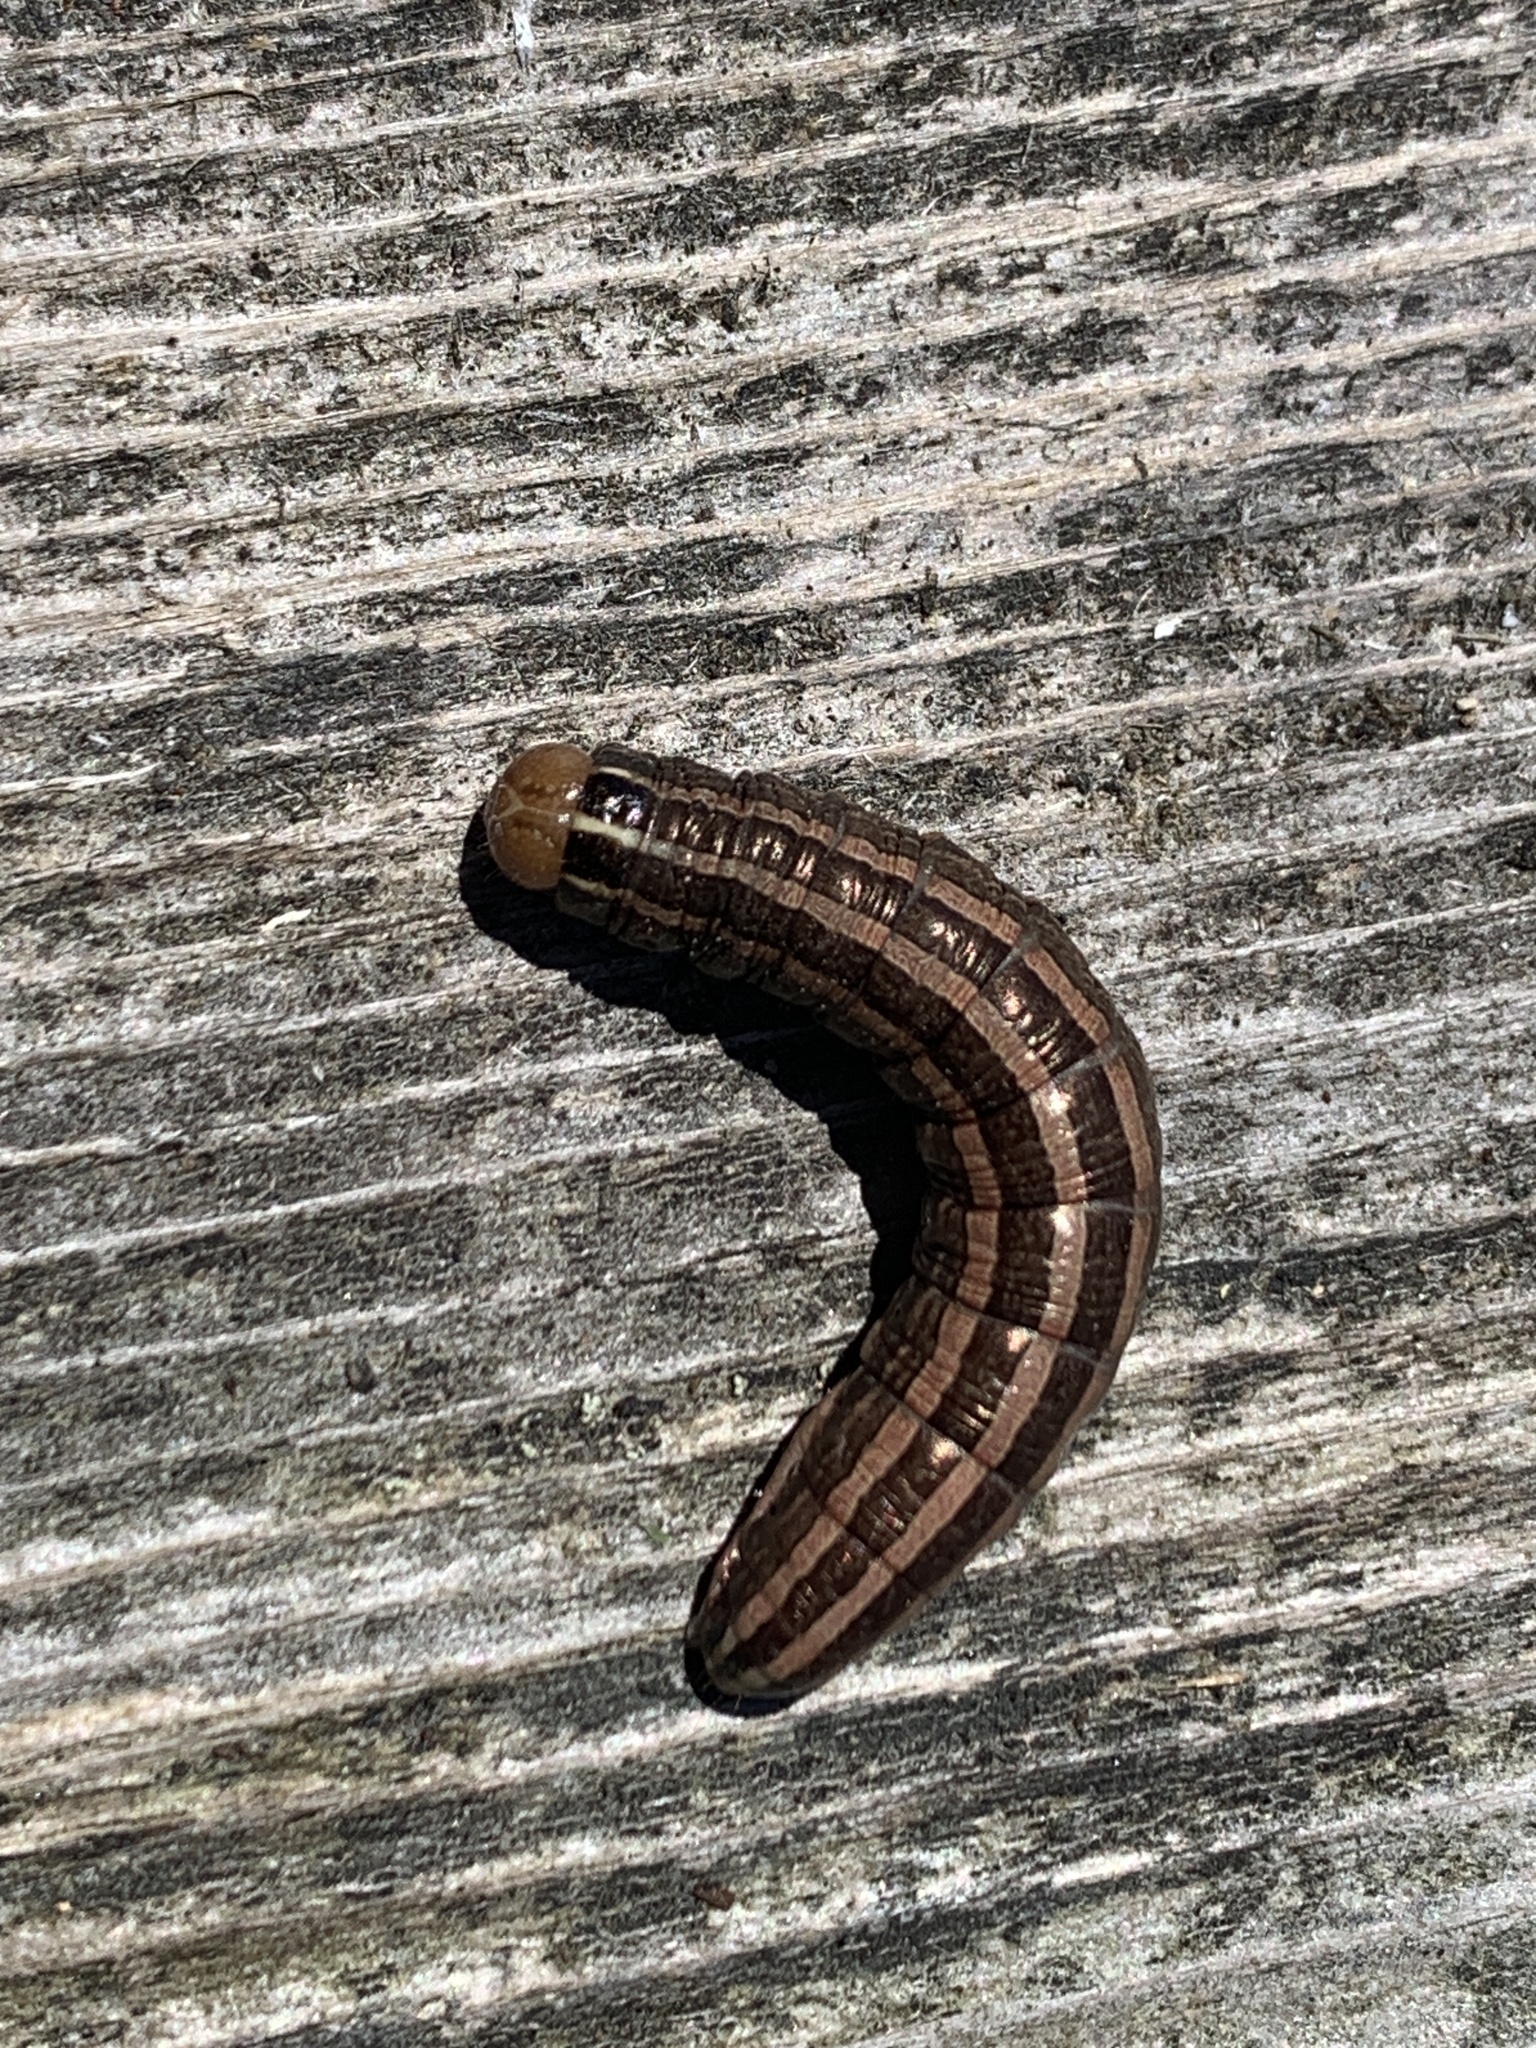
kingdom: Animalia
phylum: Arthropoda
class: Insecta
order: Lepidoptera
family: Noctuidae
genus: Nephelodes
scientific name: Nephelodes minians
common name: Bronzed cutworm
